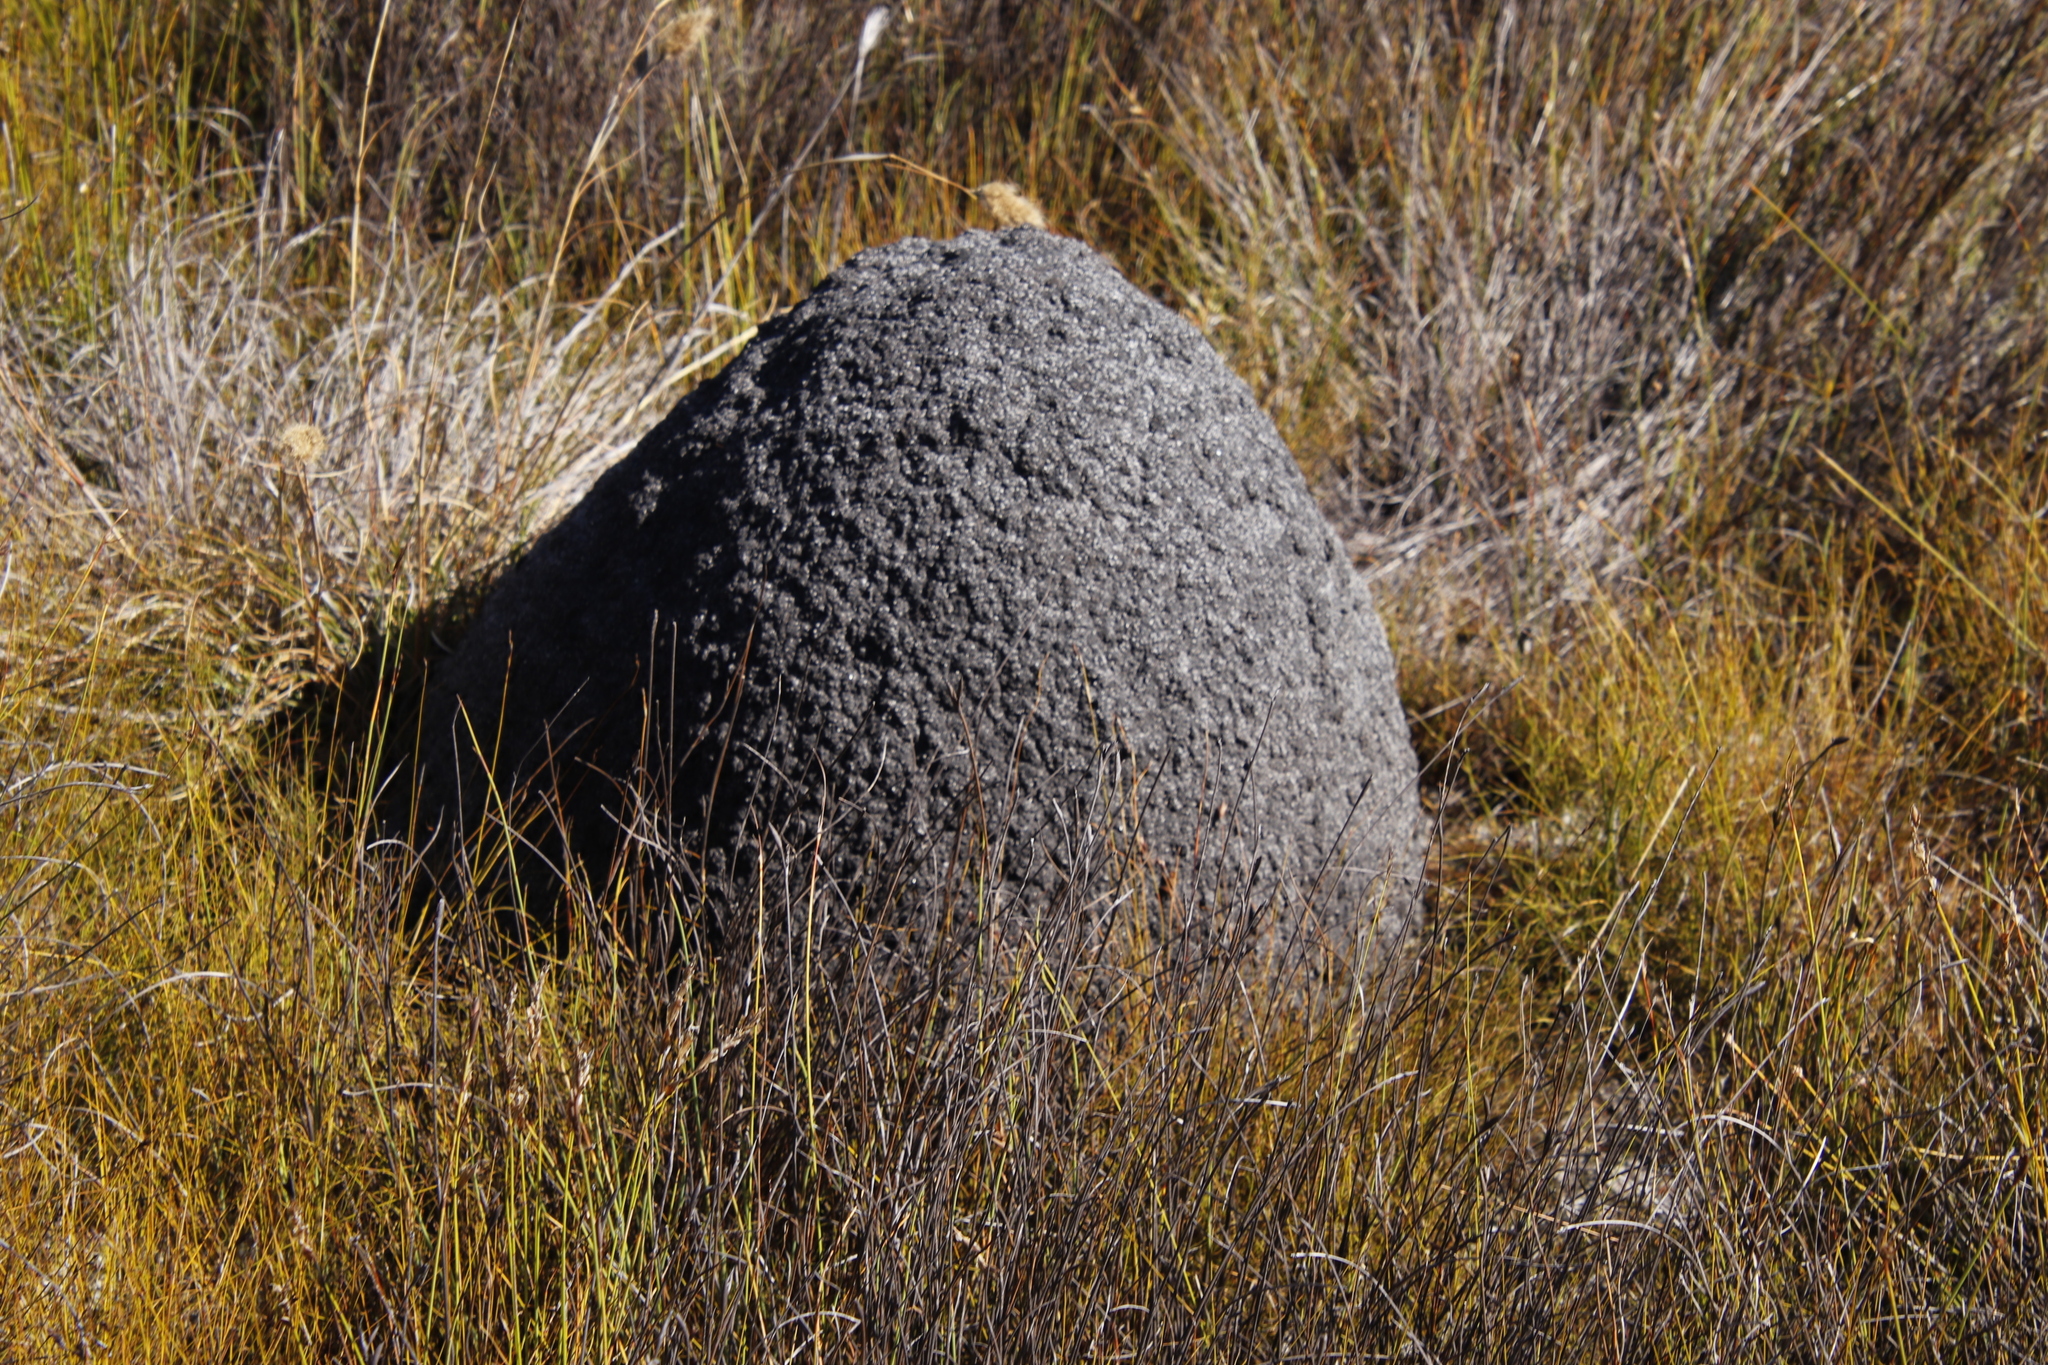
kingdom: Animalia
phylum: Arthropoda
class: Insecta
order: Blattodea
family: Termitidae
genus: Amitermes
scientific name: Amitermes hastatus
